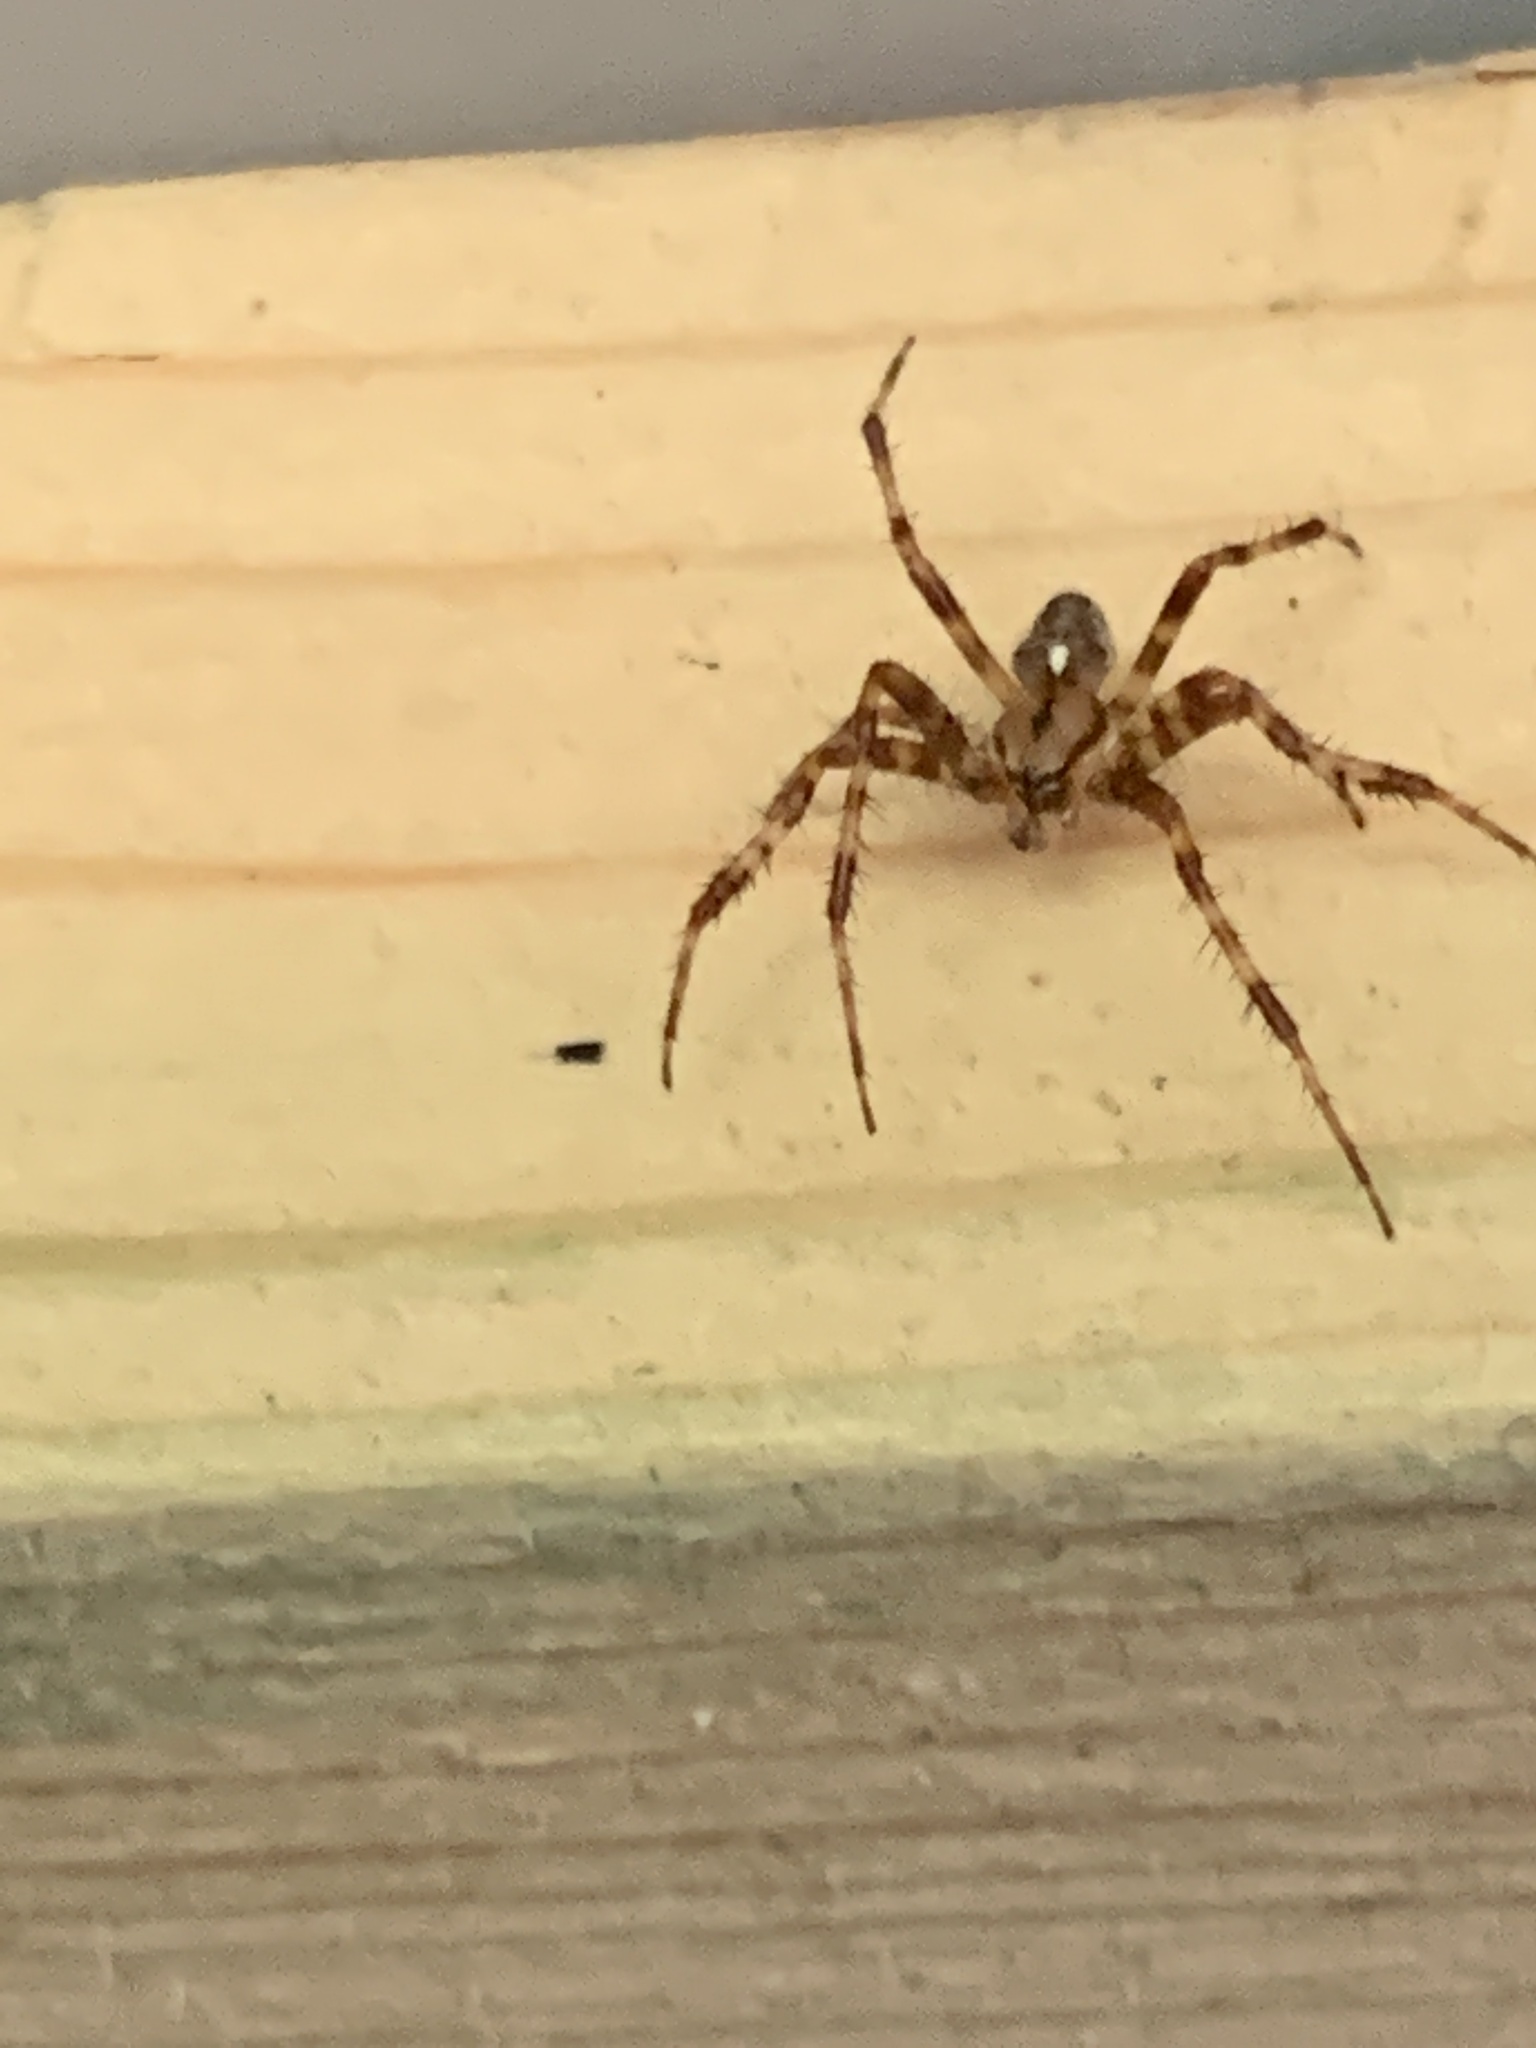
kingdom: Animalia
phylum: Arthropoda
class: Arachnida
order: Araneae
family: Araneidae
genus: Araneus
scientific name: Araneus diadematus
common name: Cross orbweaver
